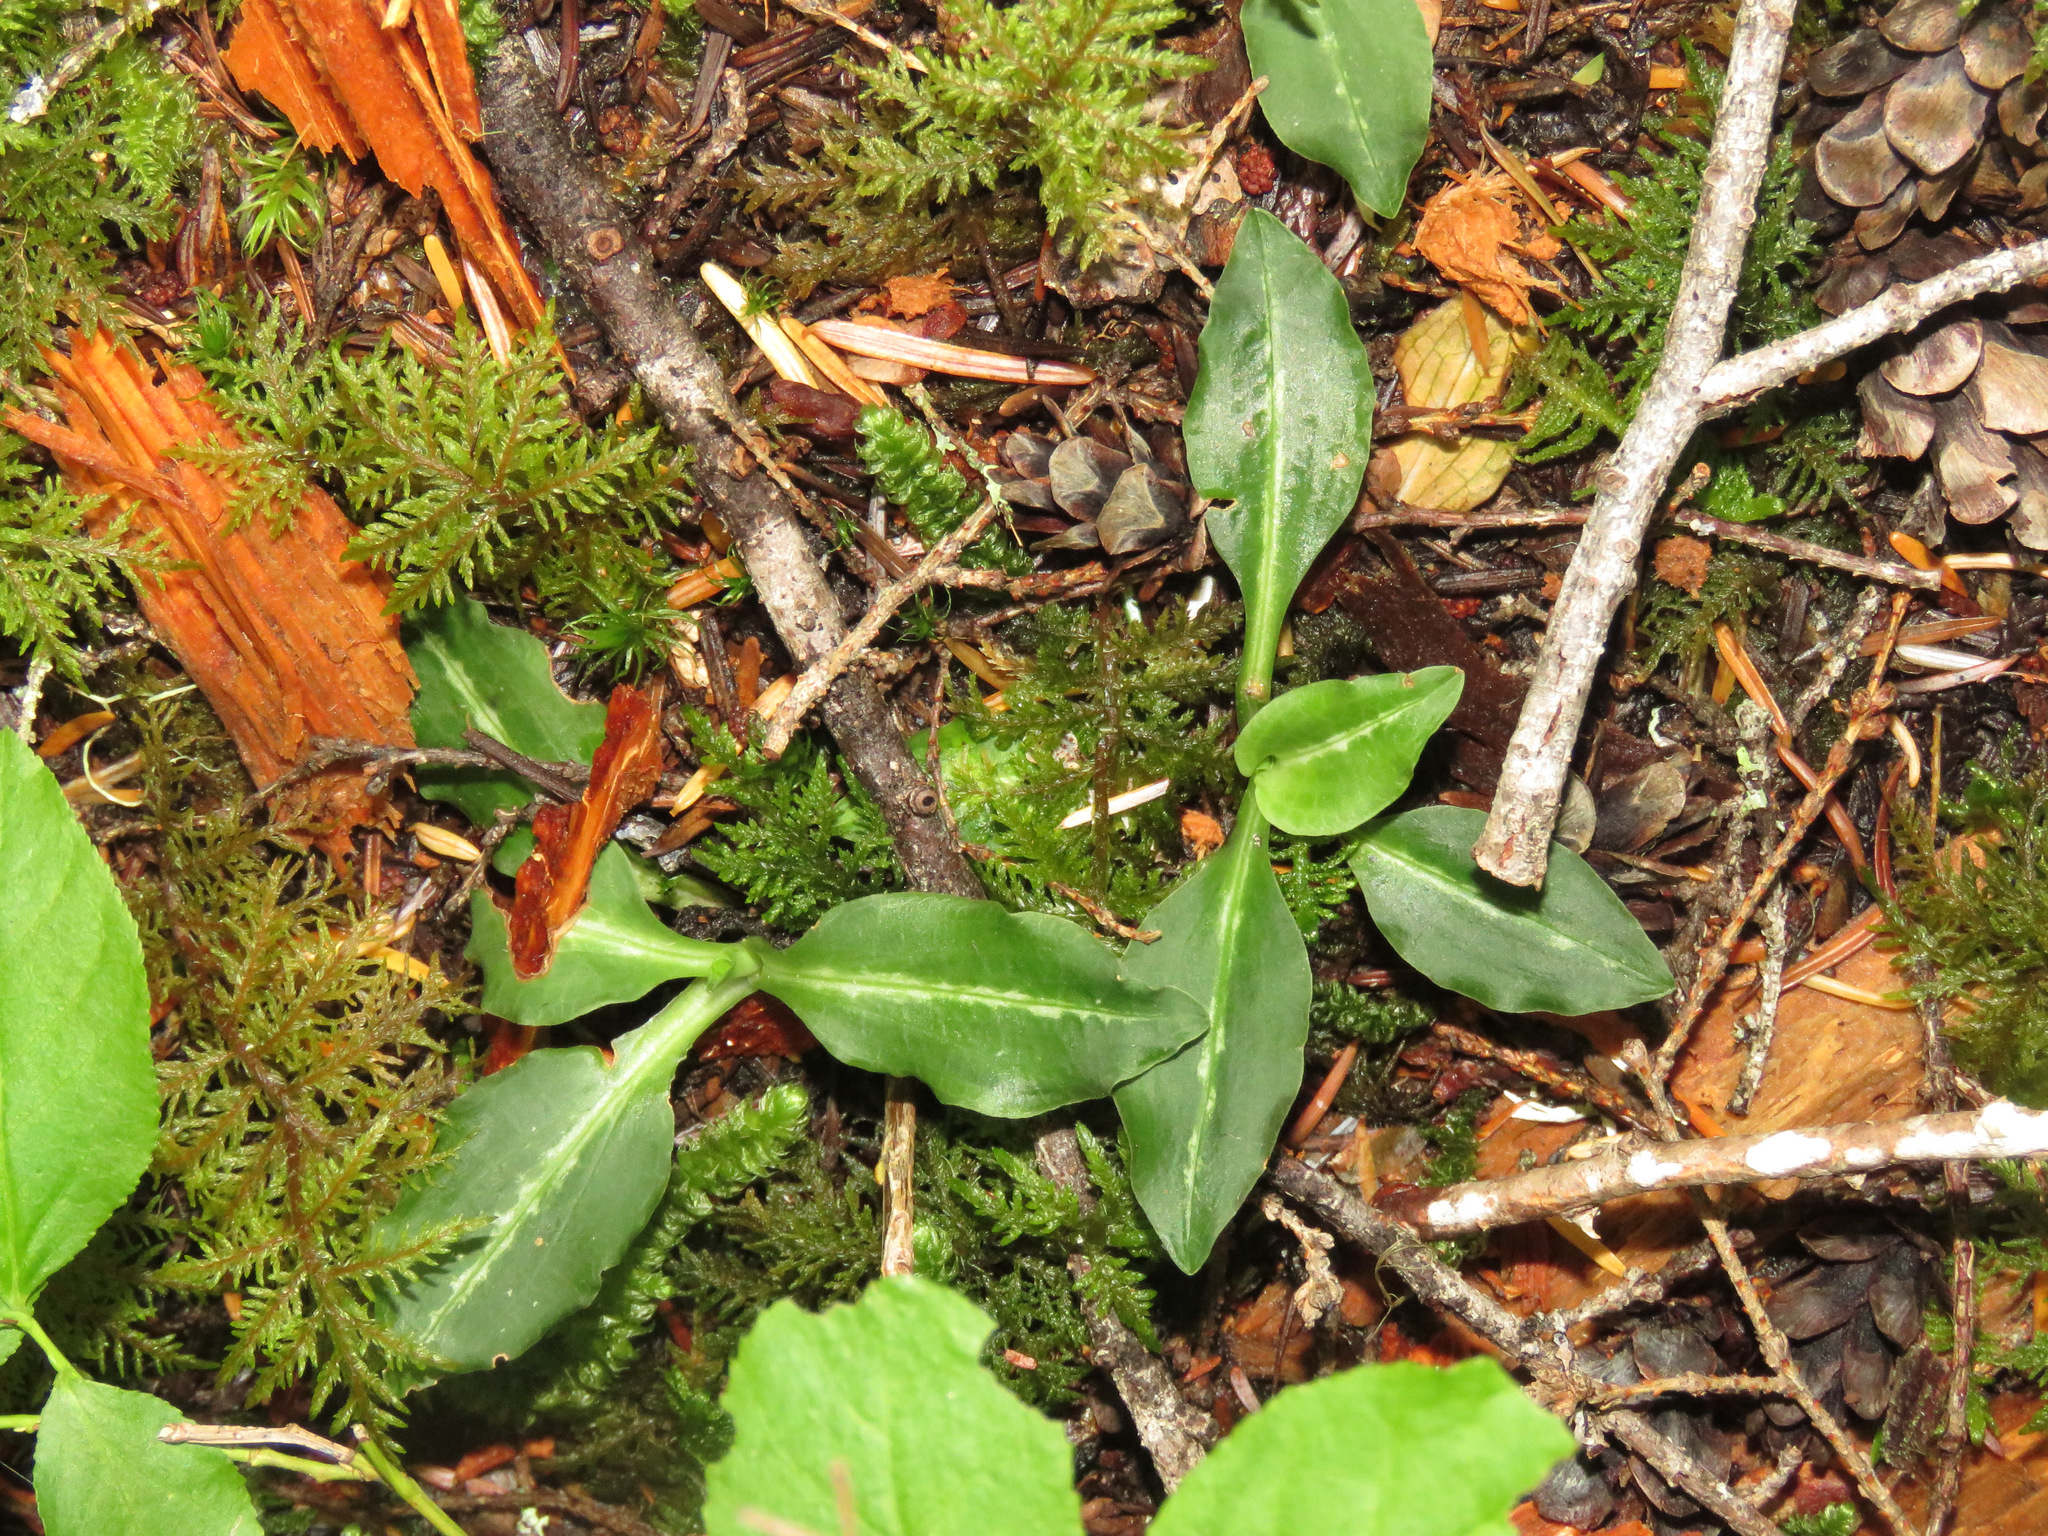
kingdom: Plantae
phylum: Tracheophyta
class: Liliopsida
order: Asparagales
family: Orchidaceae
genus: Goodyera
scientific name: Goodyera oblongifolia
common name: Giant rattlesnake-plantain
